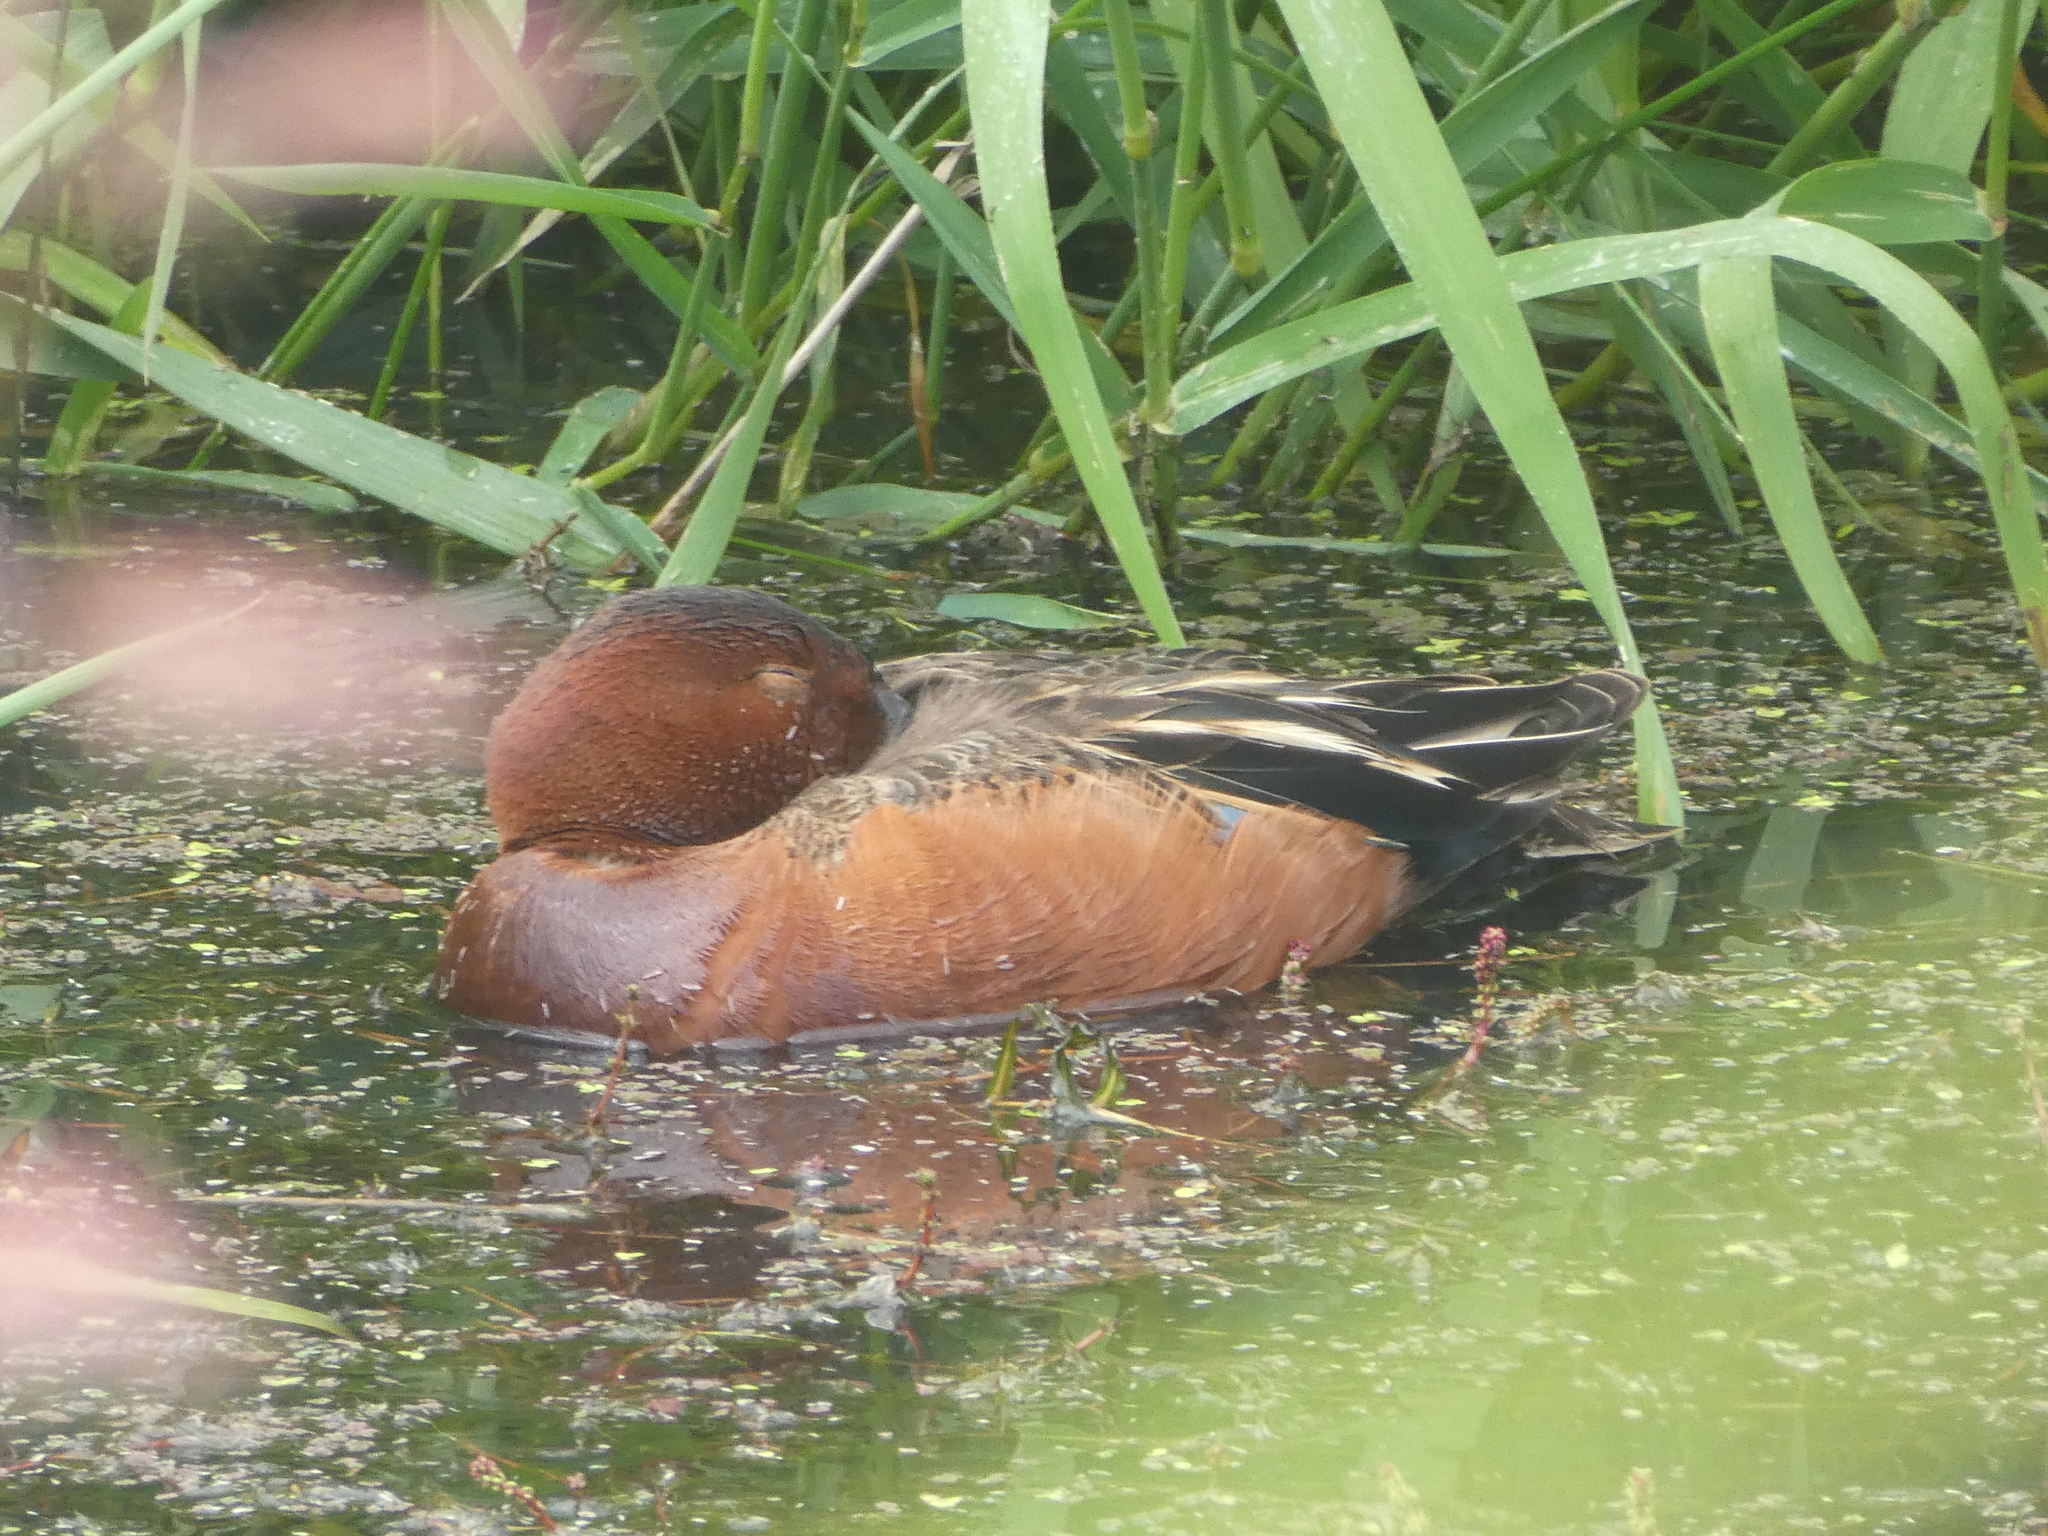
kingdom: Animalia
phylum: Chordata
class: Aves
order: Anseriformes
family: Anatidae
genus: Spatula
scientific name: Spatula cyanoptera
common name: Cinnamon teal
